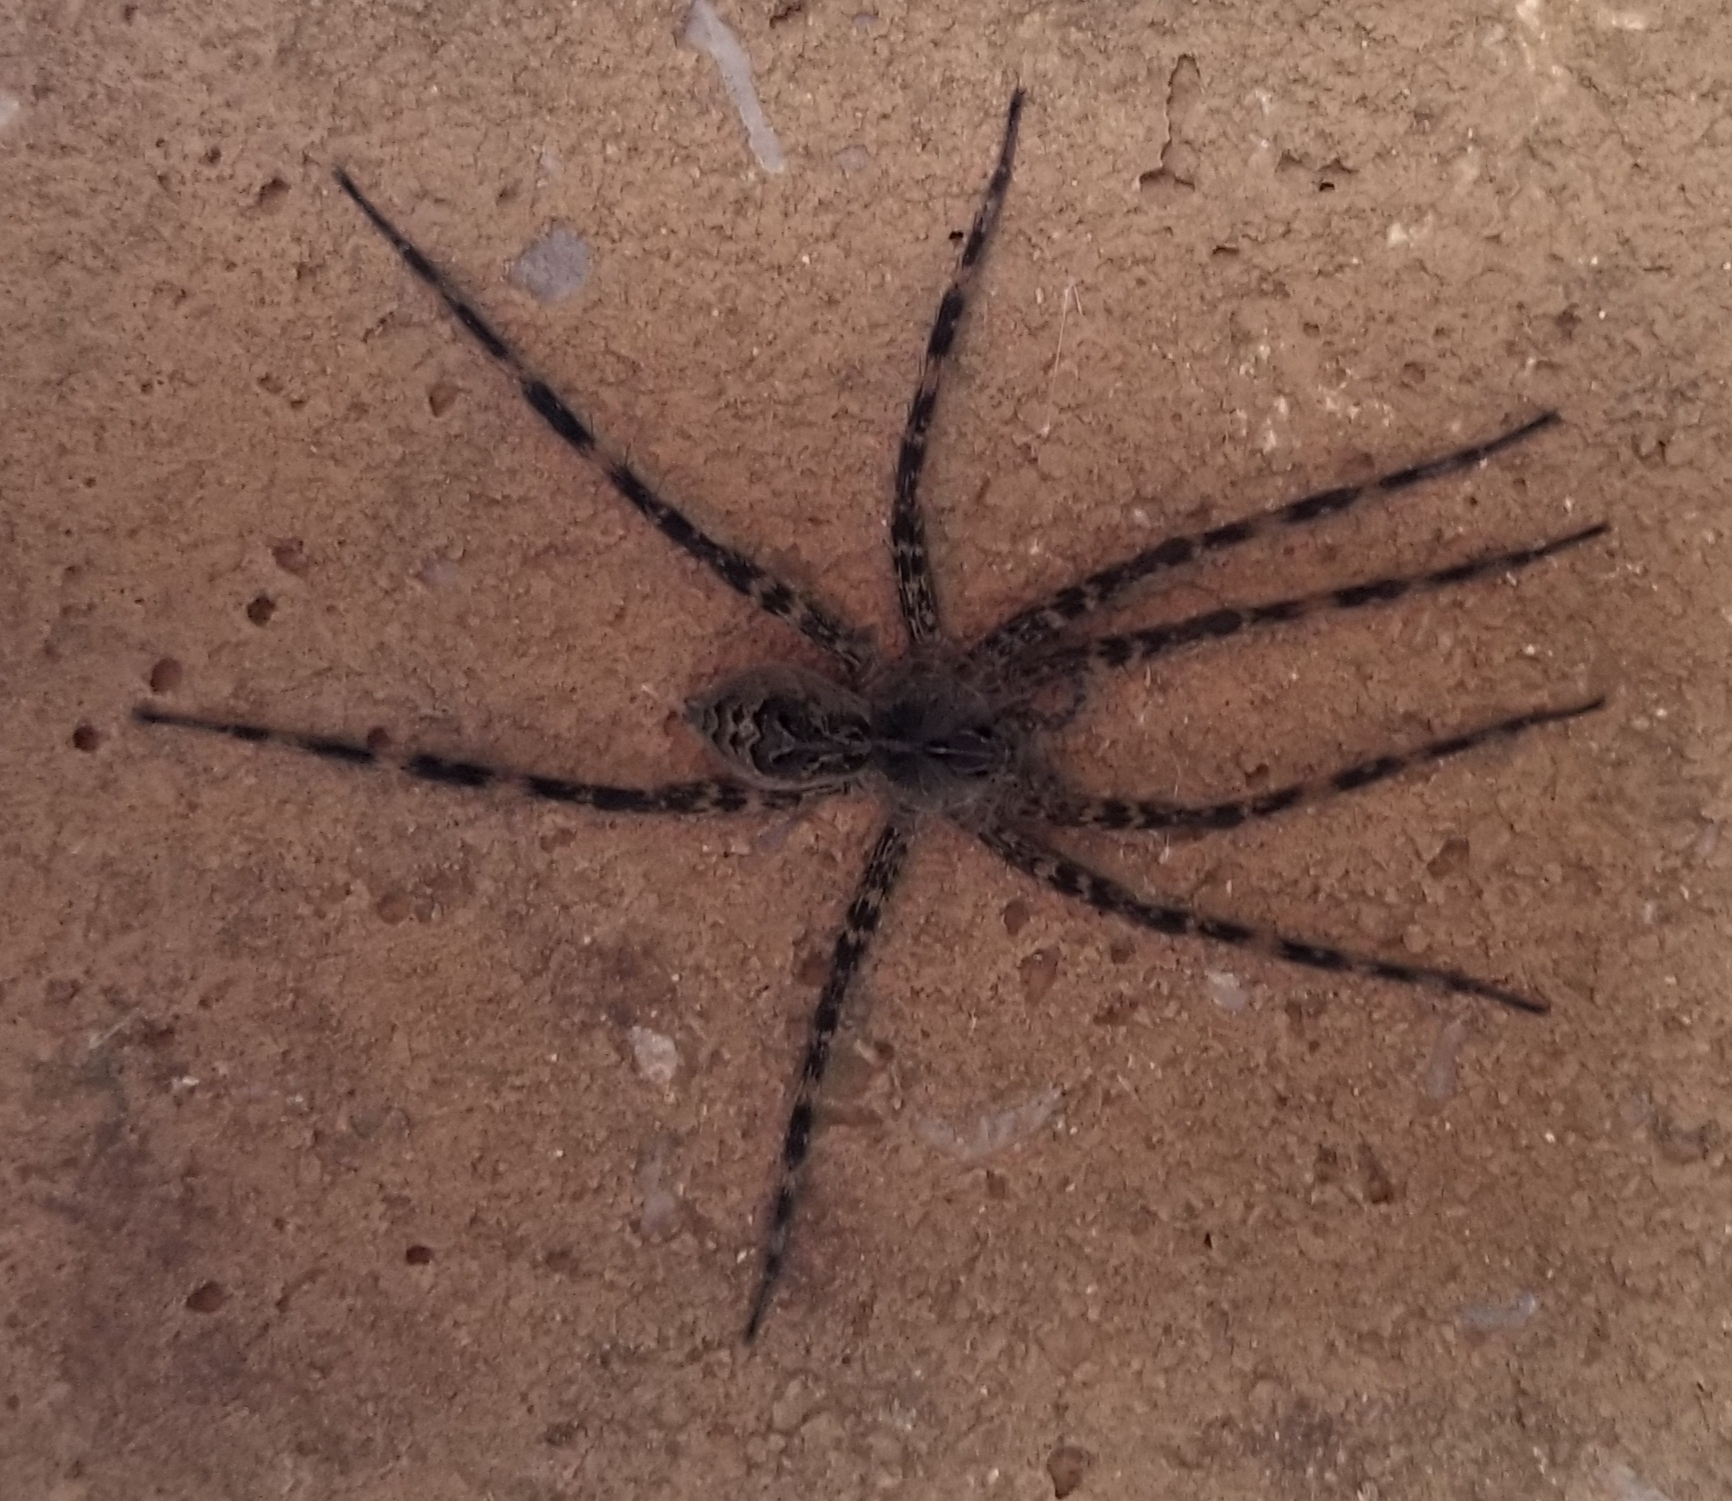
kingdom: Animalia
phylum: Arthropoda
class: Arachnida
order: Araneae
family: Pisauridae
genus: Dolomedes
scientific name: Dolomedes scriptus
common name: Striped fishing spider
